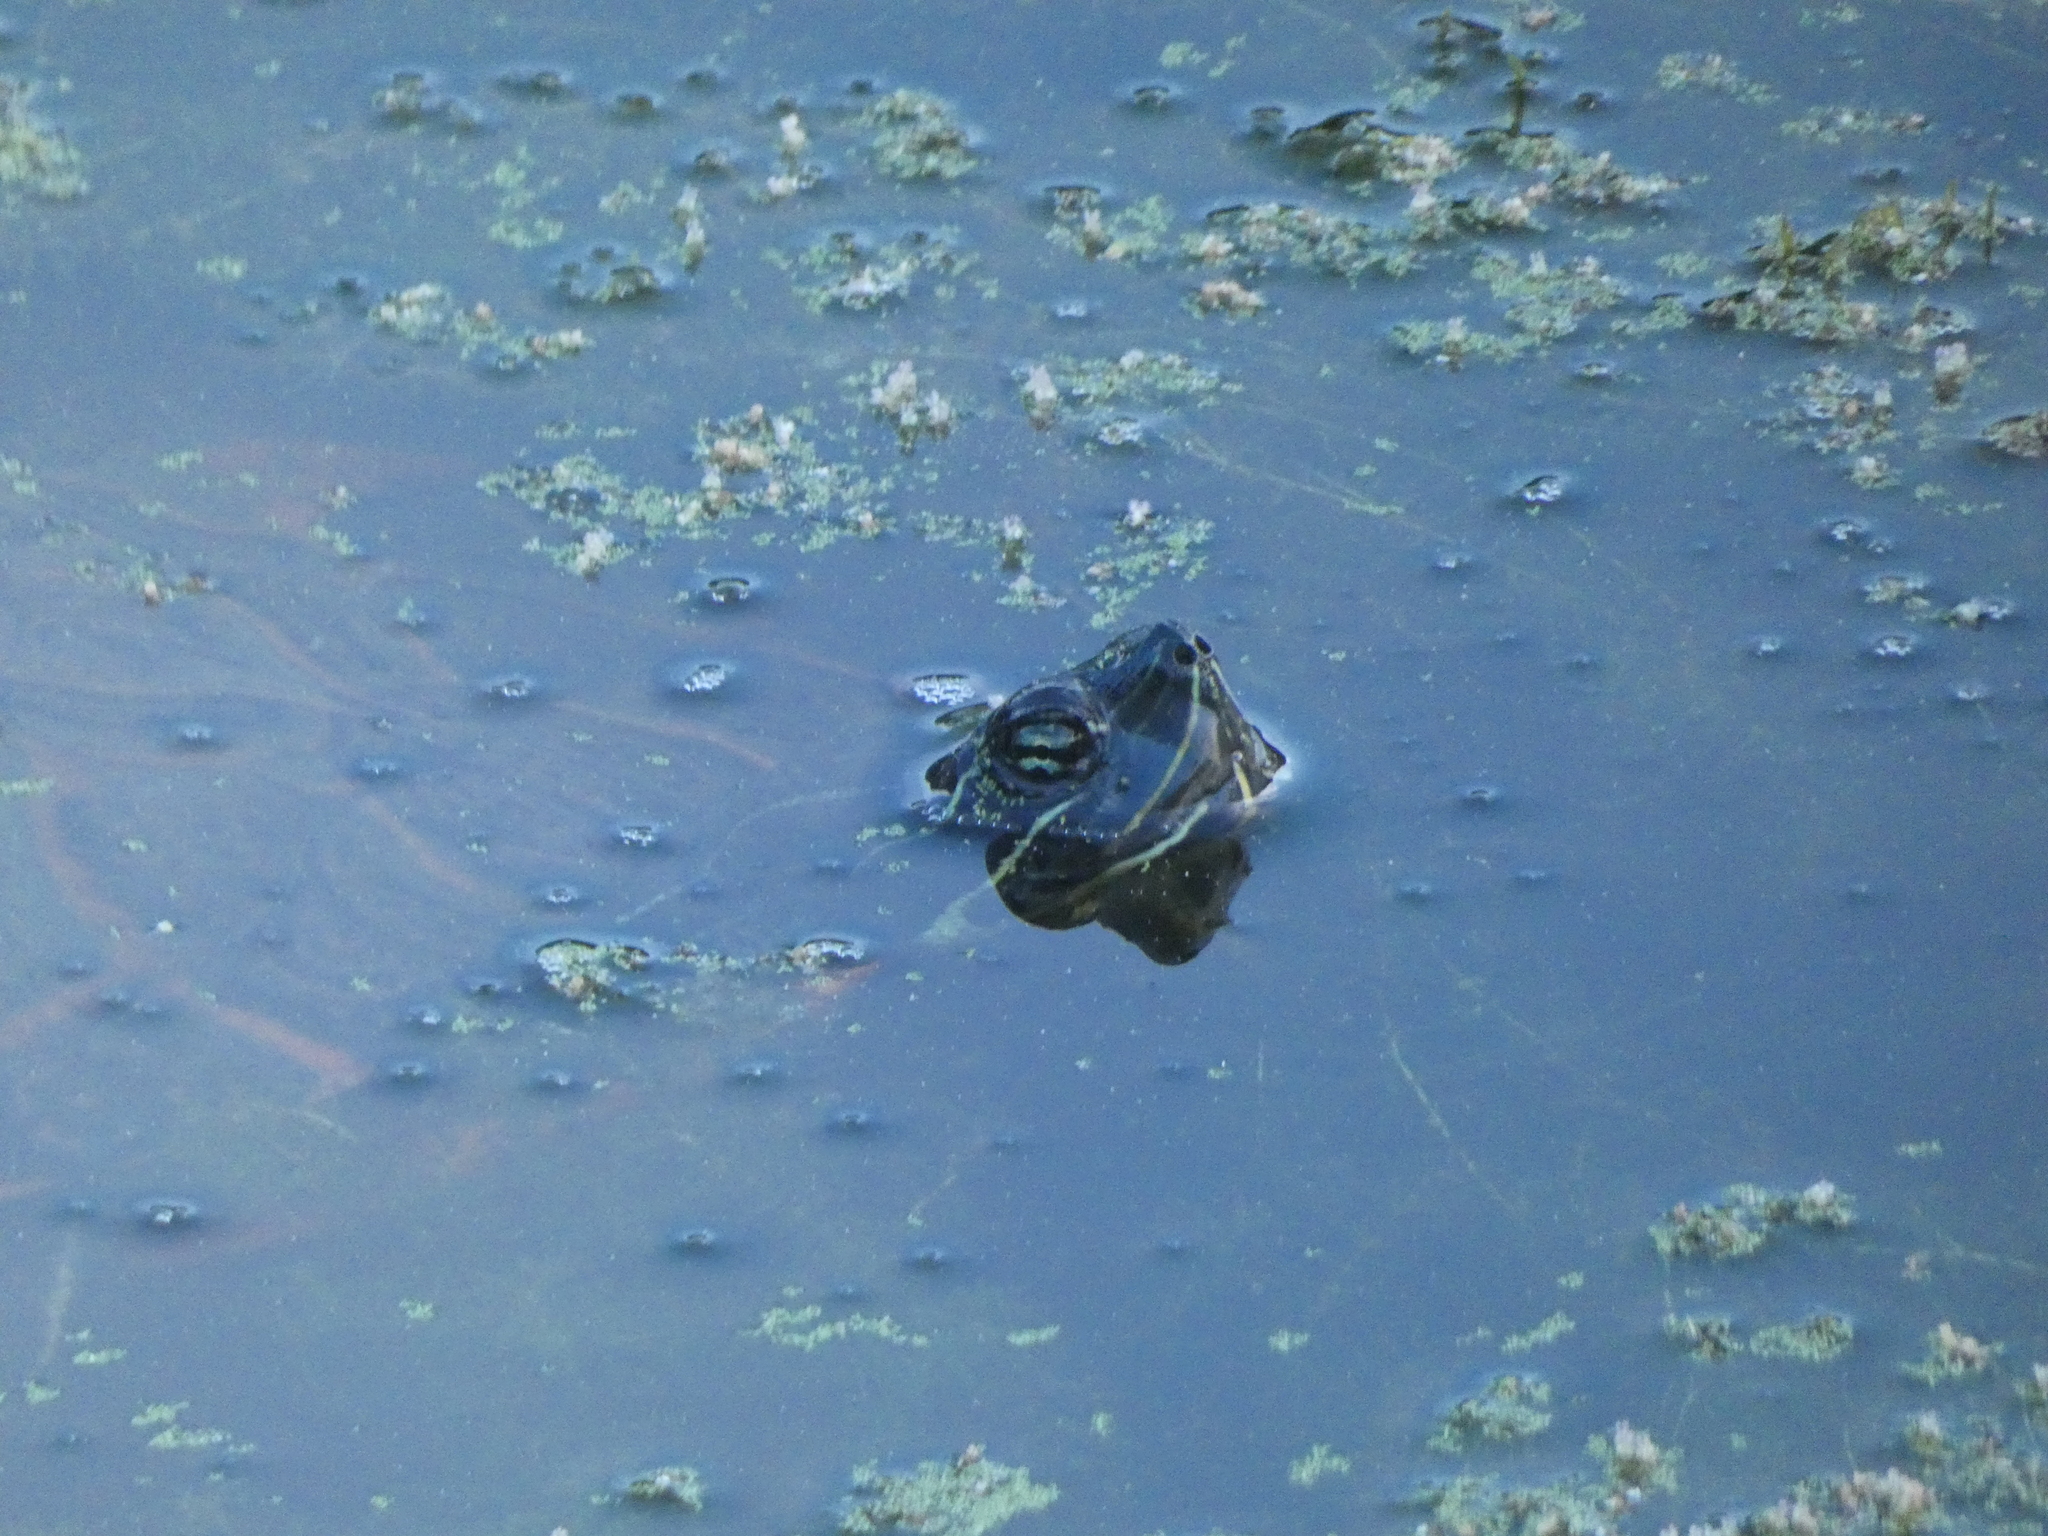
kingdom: Animalia
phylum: Chordata
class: Testudines
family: Emydidae
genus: Pseudemys
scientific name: Pseudemys rubriventris
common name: American red-bellied turtle
